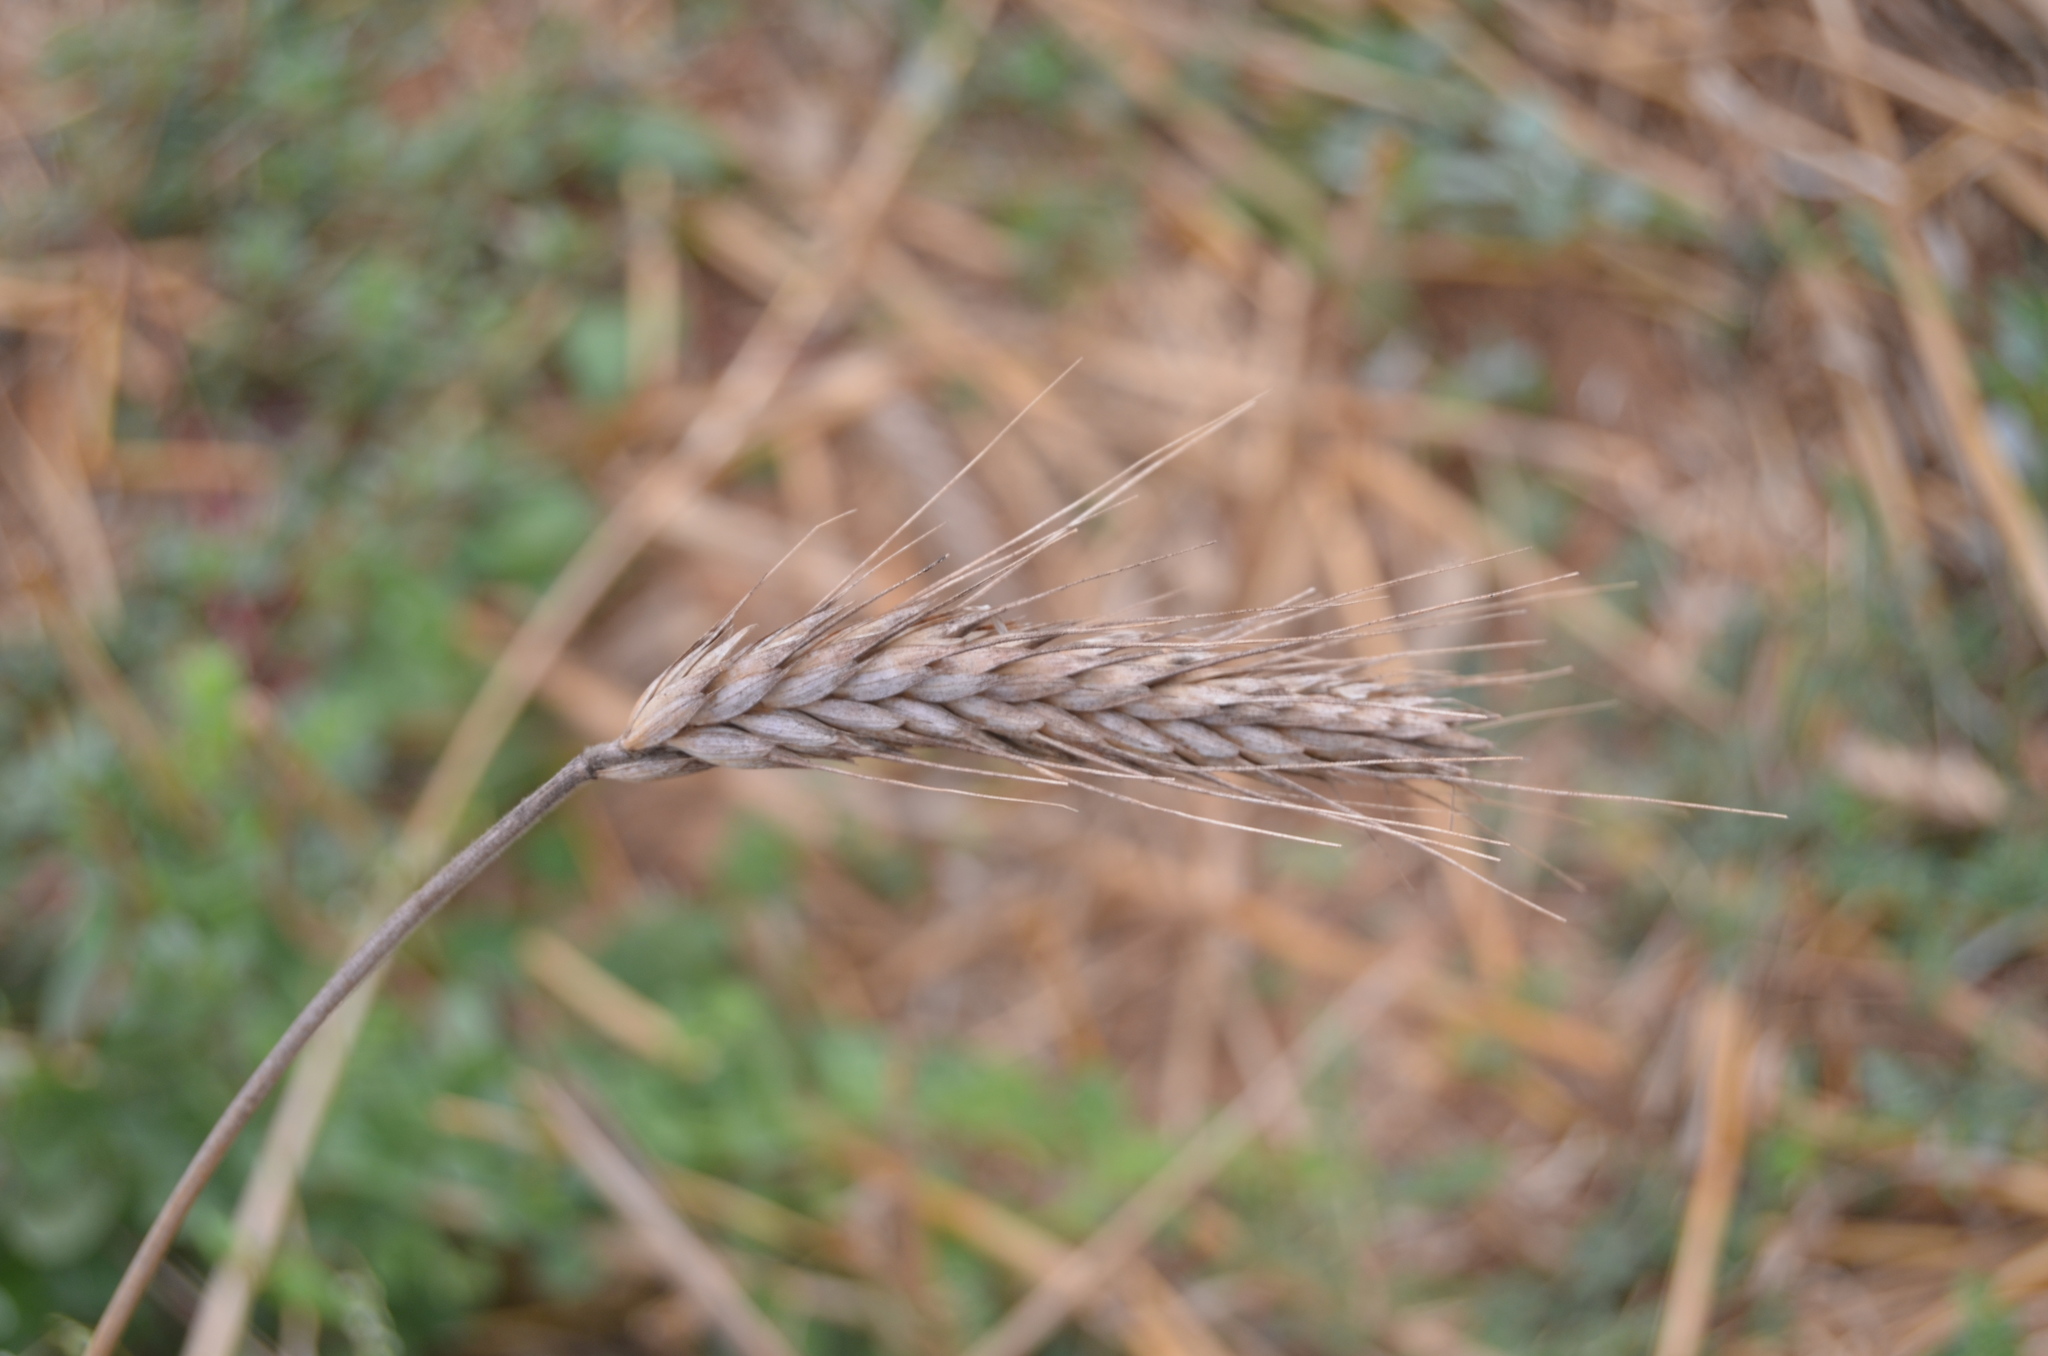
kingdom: Plantae
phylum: Tracheophyta
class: Liliopsida
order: Poales
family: Poaceae
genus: Triticum
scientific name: Triticum aestivum
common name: Common wheat
